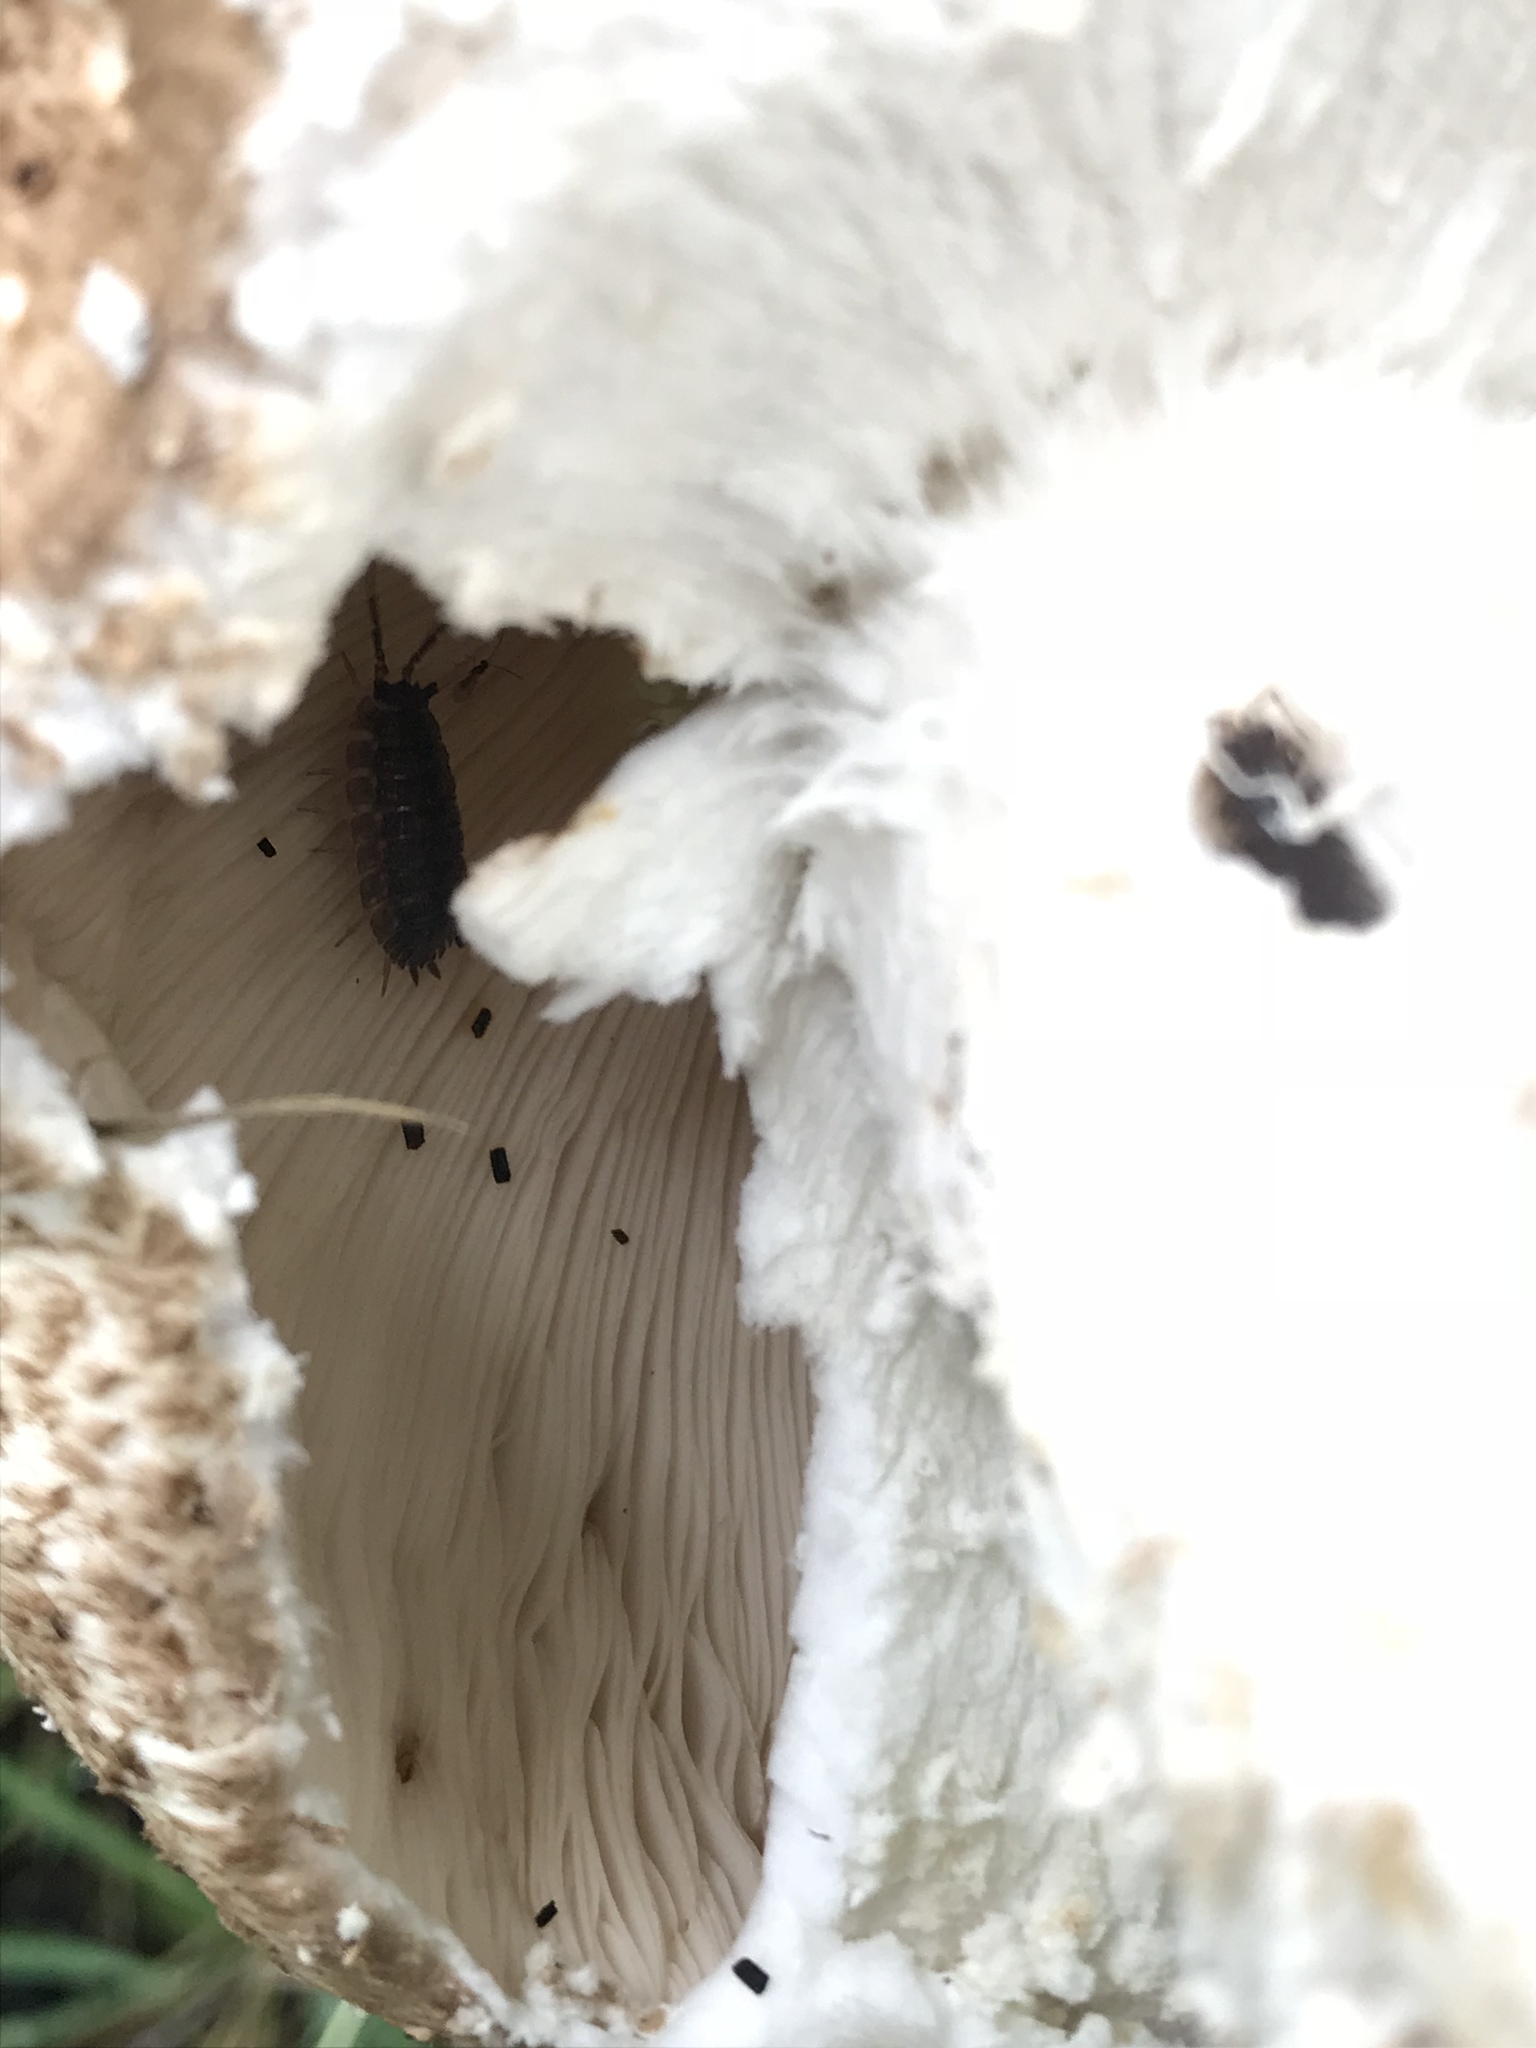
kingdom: Fungi
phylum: Basidiomycota
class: Agaricomycetes
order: Agaricales
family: Agaricaceae
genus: Agaricus
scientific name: Agaricus augustus
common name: Prince
